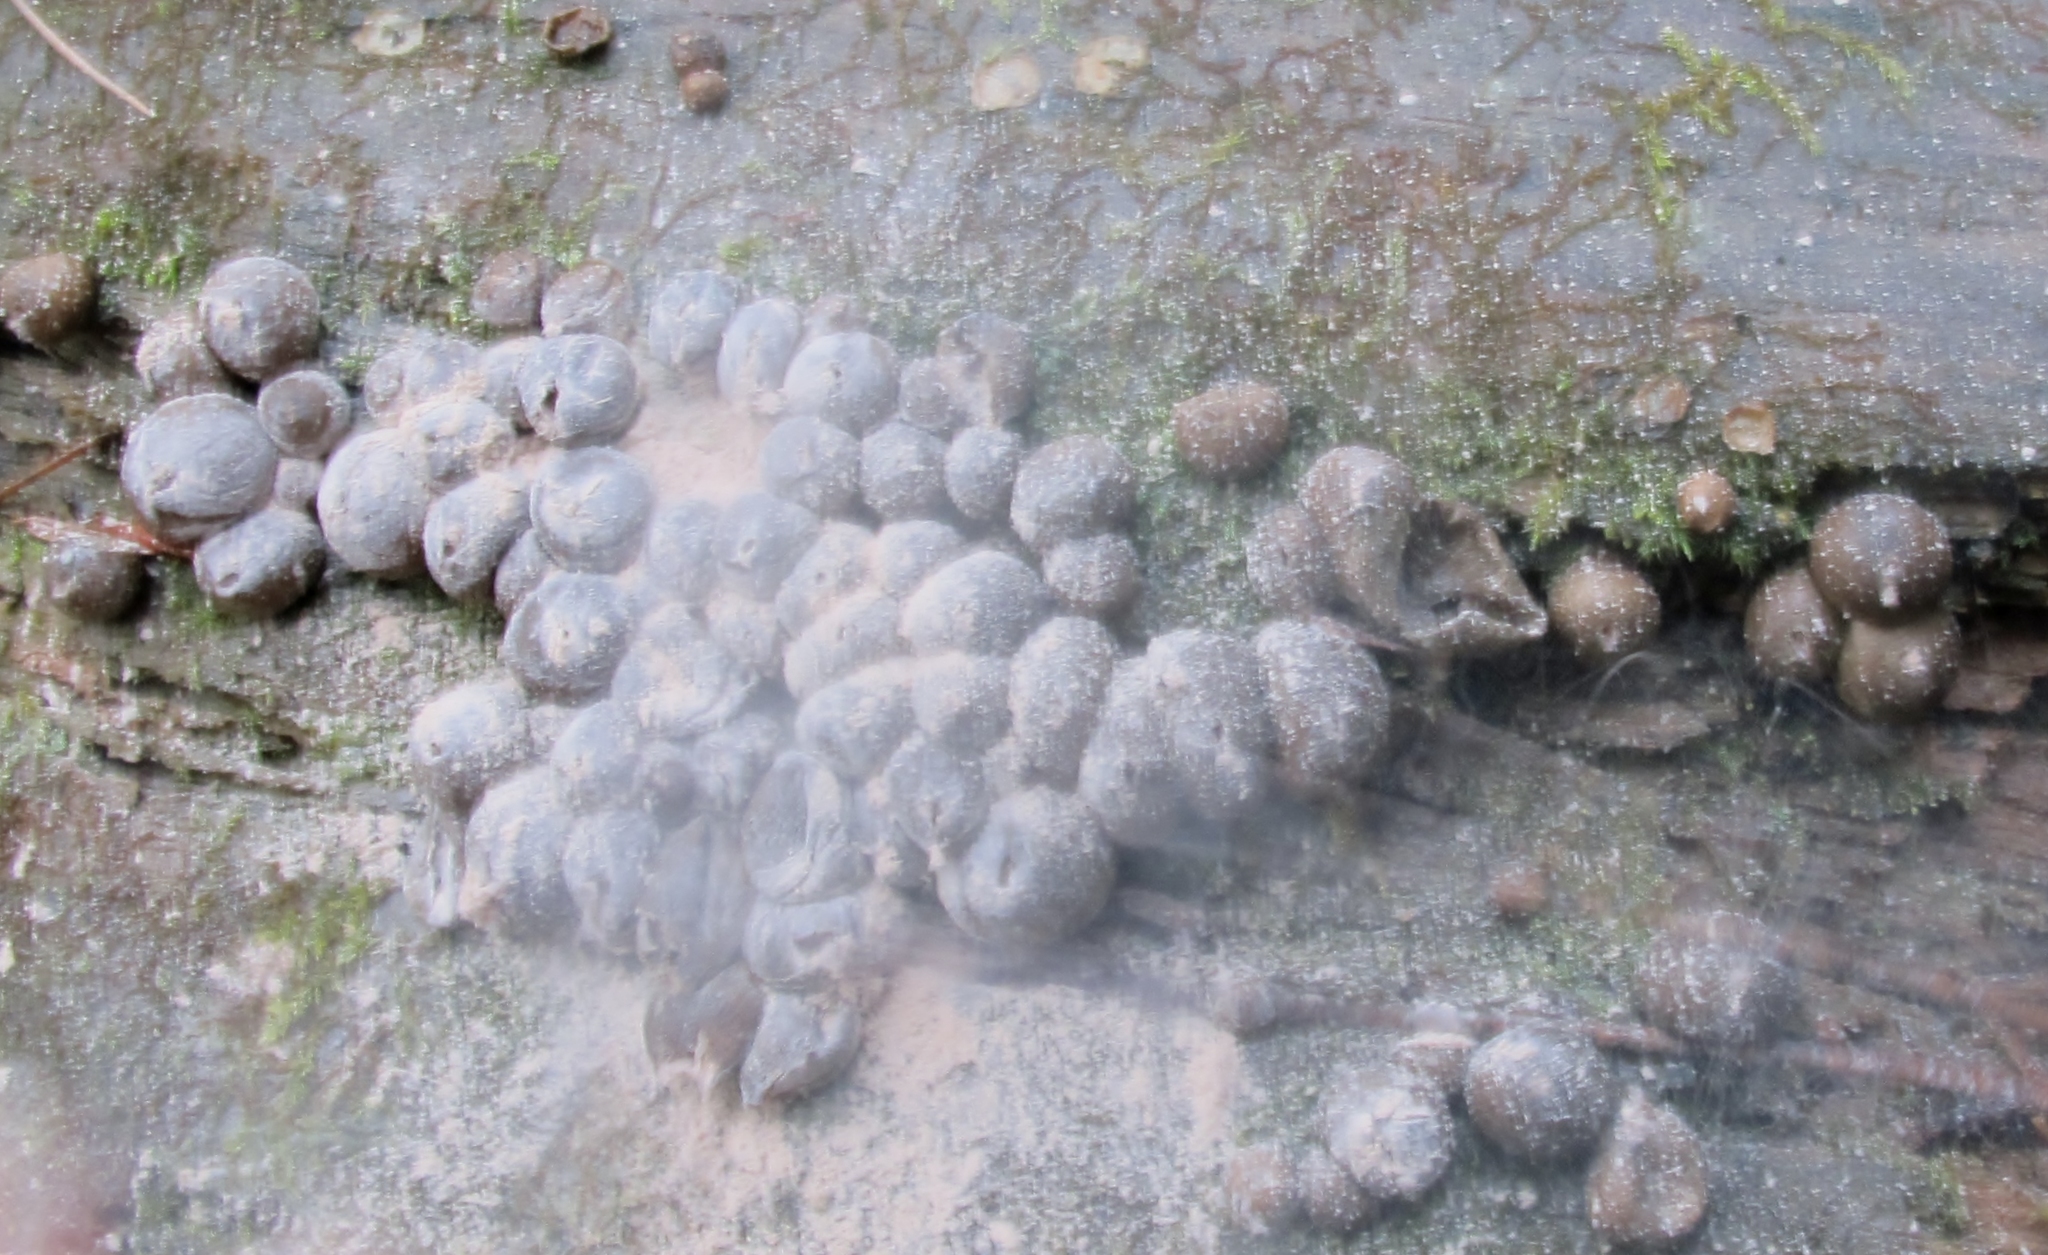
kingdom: Protozoa
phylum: Mycetozoa
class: Myxomycetes
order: Cribrariales
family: Tubiferaceae
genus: Lycogala
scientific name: Lycogala epidendrum
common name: Wolf's milk
